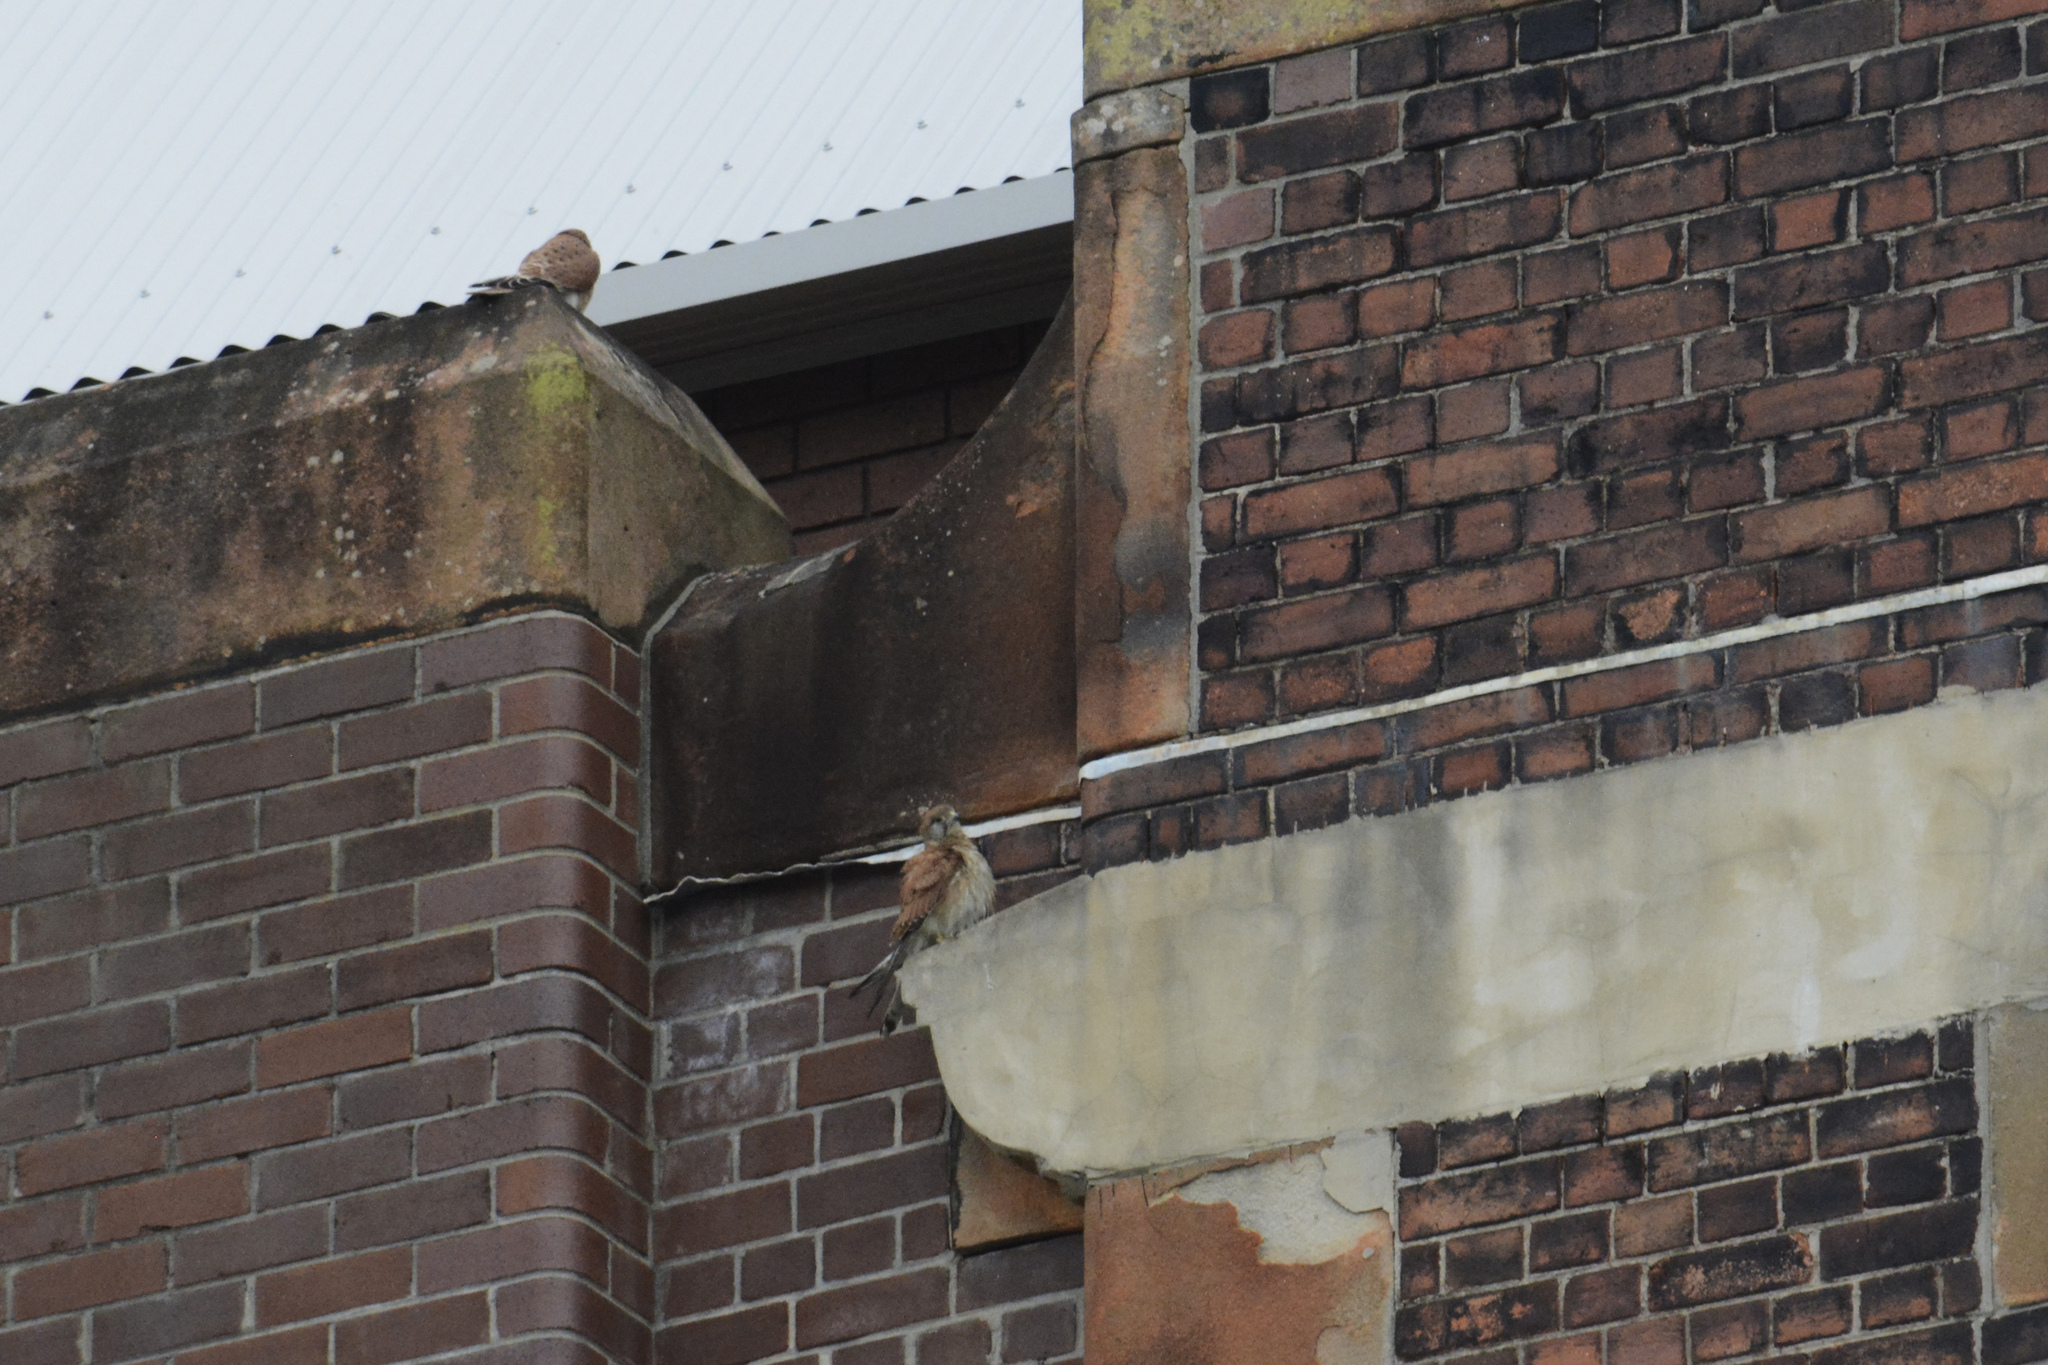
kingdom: Animalia
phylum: Chordata
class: Aves
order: Falconiformes
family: Falconidae
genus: Falco
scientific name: Falco cenchroides
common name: Nankeen kestrel
